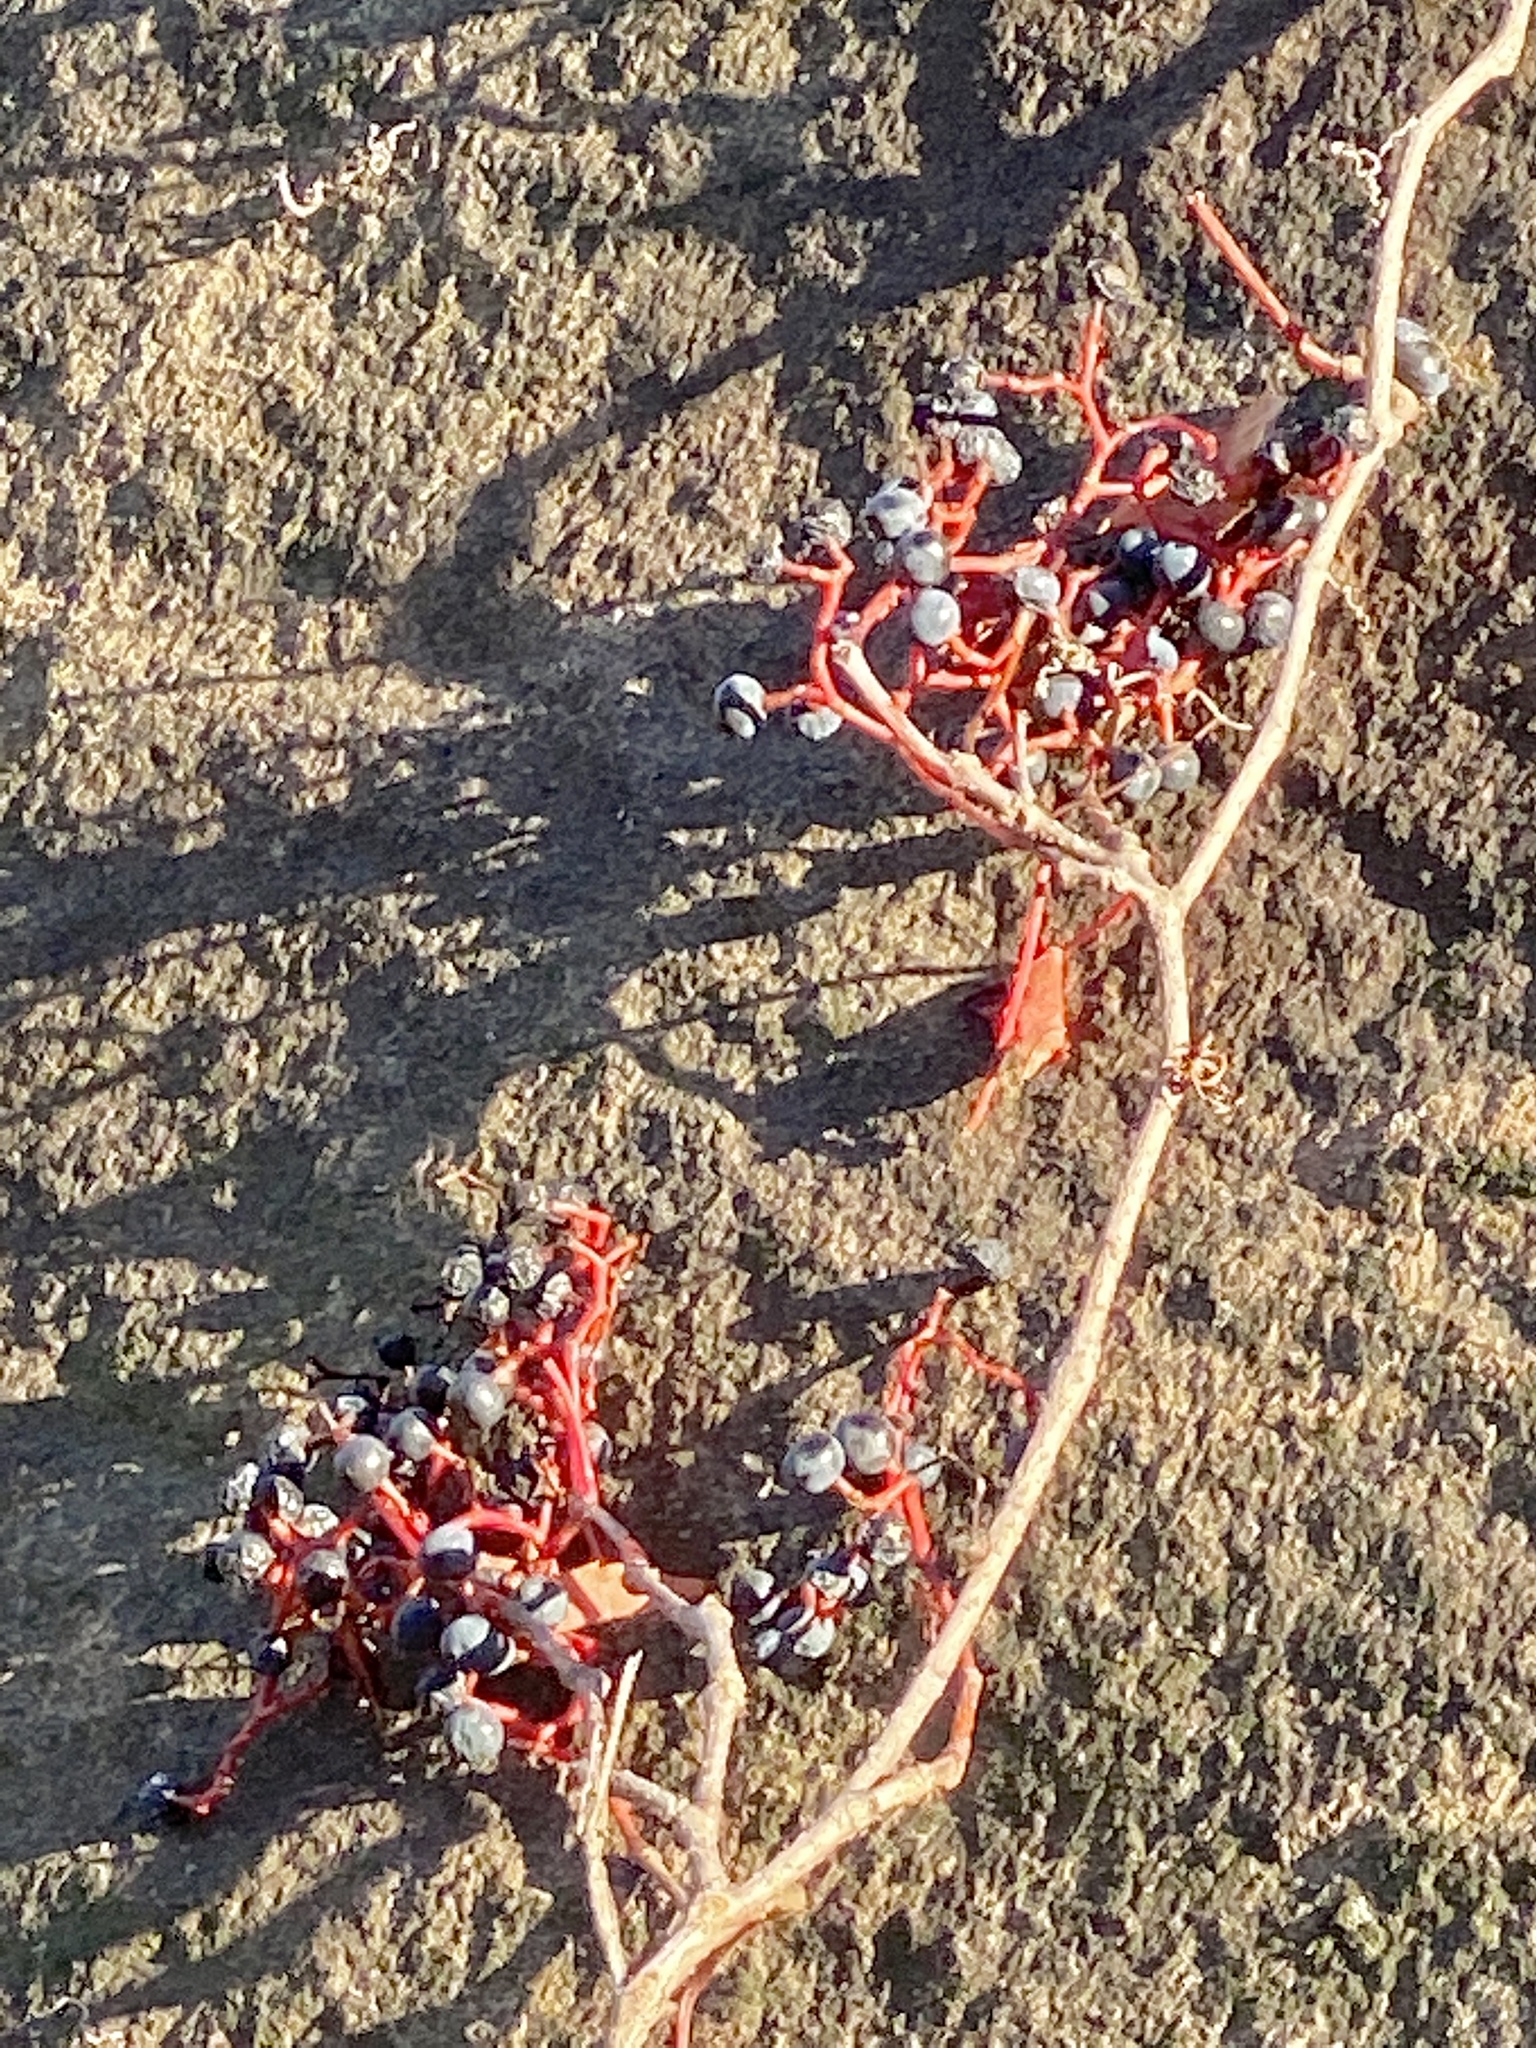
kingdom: Plantae
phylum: Tracheophyta
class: Magnoliopsida
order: Vitales
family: Vitaceae
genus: Parthenocissus
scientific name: Parthenocissus quinquefolia
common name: Virginia-creeper
